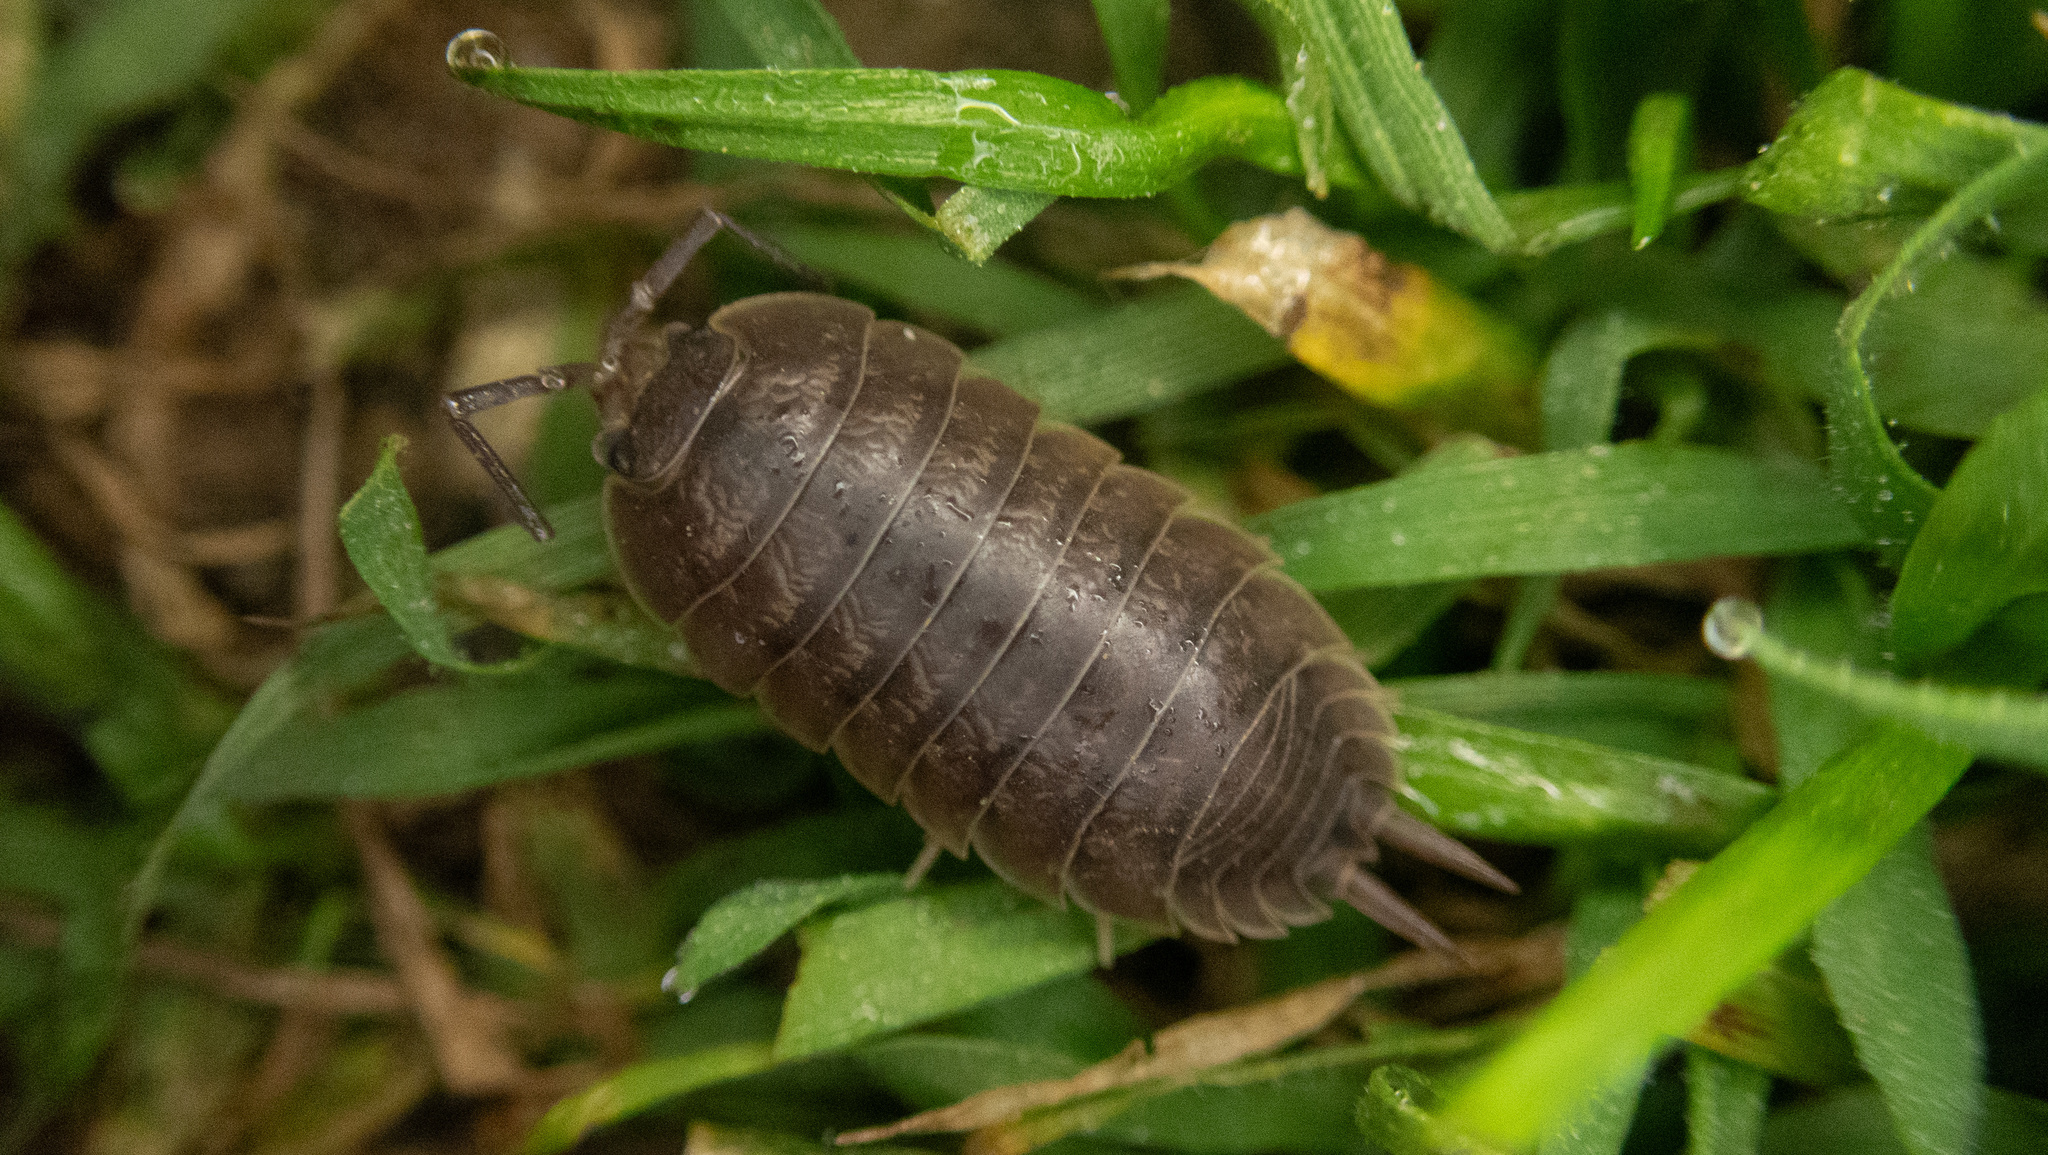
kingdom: Animalia
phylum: Arthropoda
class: Malacostraca
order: Isopoda
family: Porcellionidae
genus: Porcellio
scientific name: Porcellio laevis
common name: Swift woodlouse
